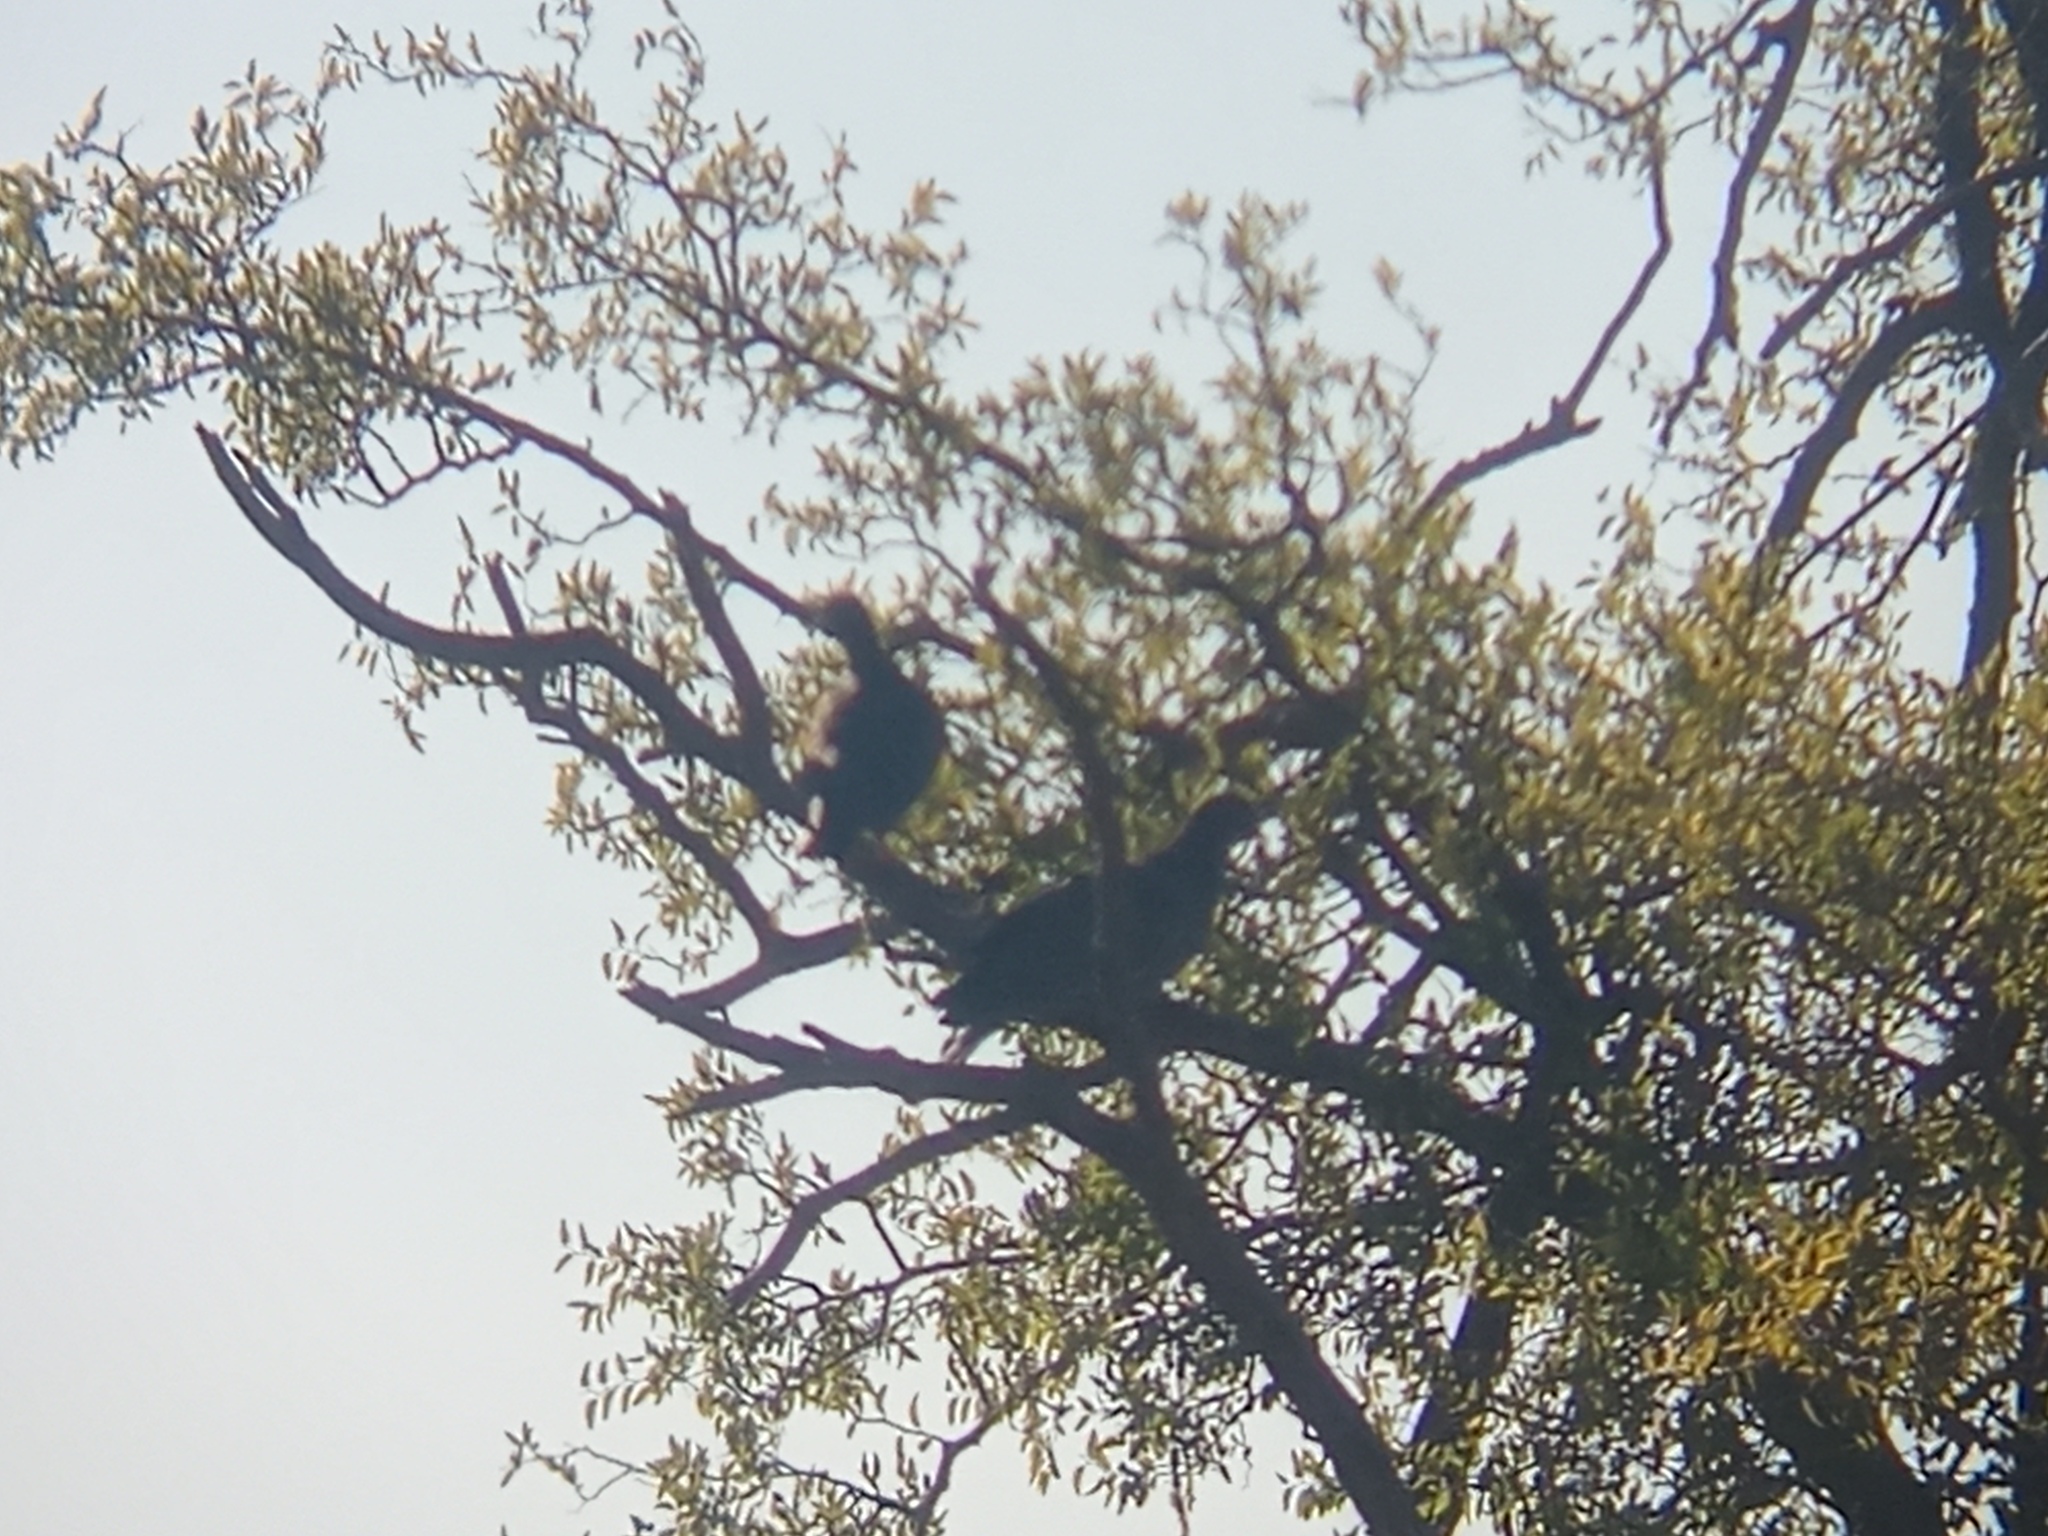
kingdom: Plantae
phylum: Tracheophyta
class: Magnoliopsida
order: Rosales
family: Cannabaceae
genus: Celtis
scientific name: Celtis tala
